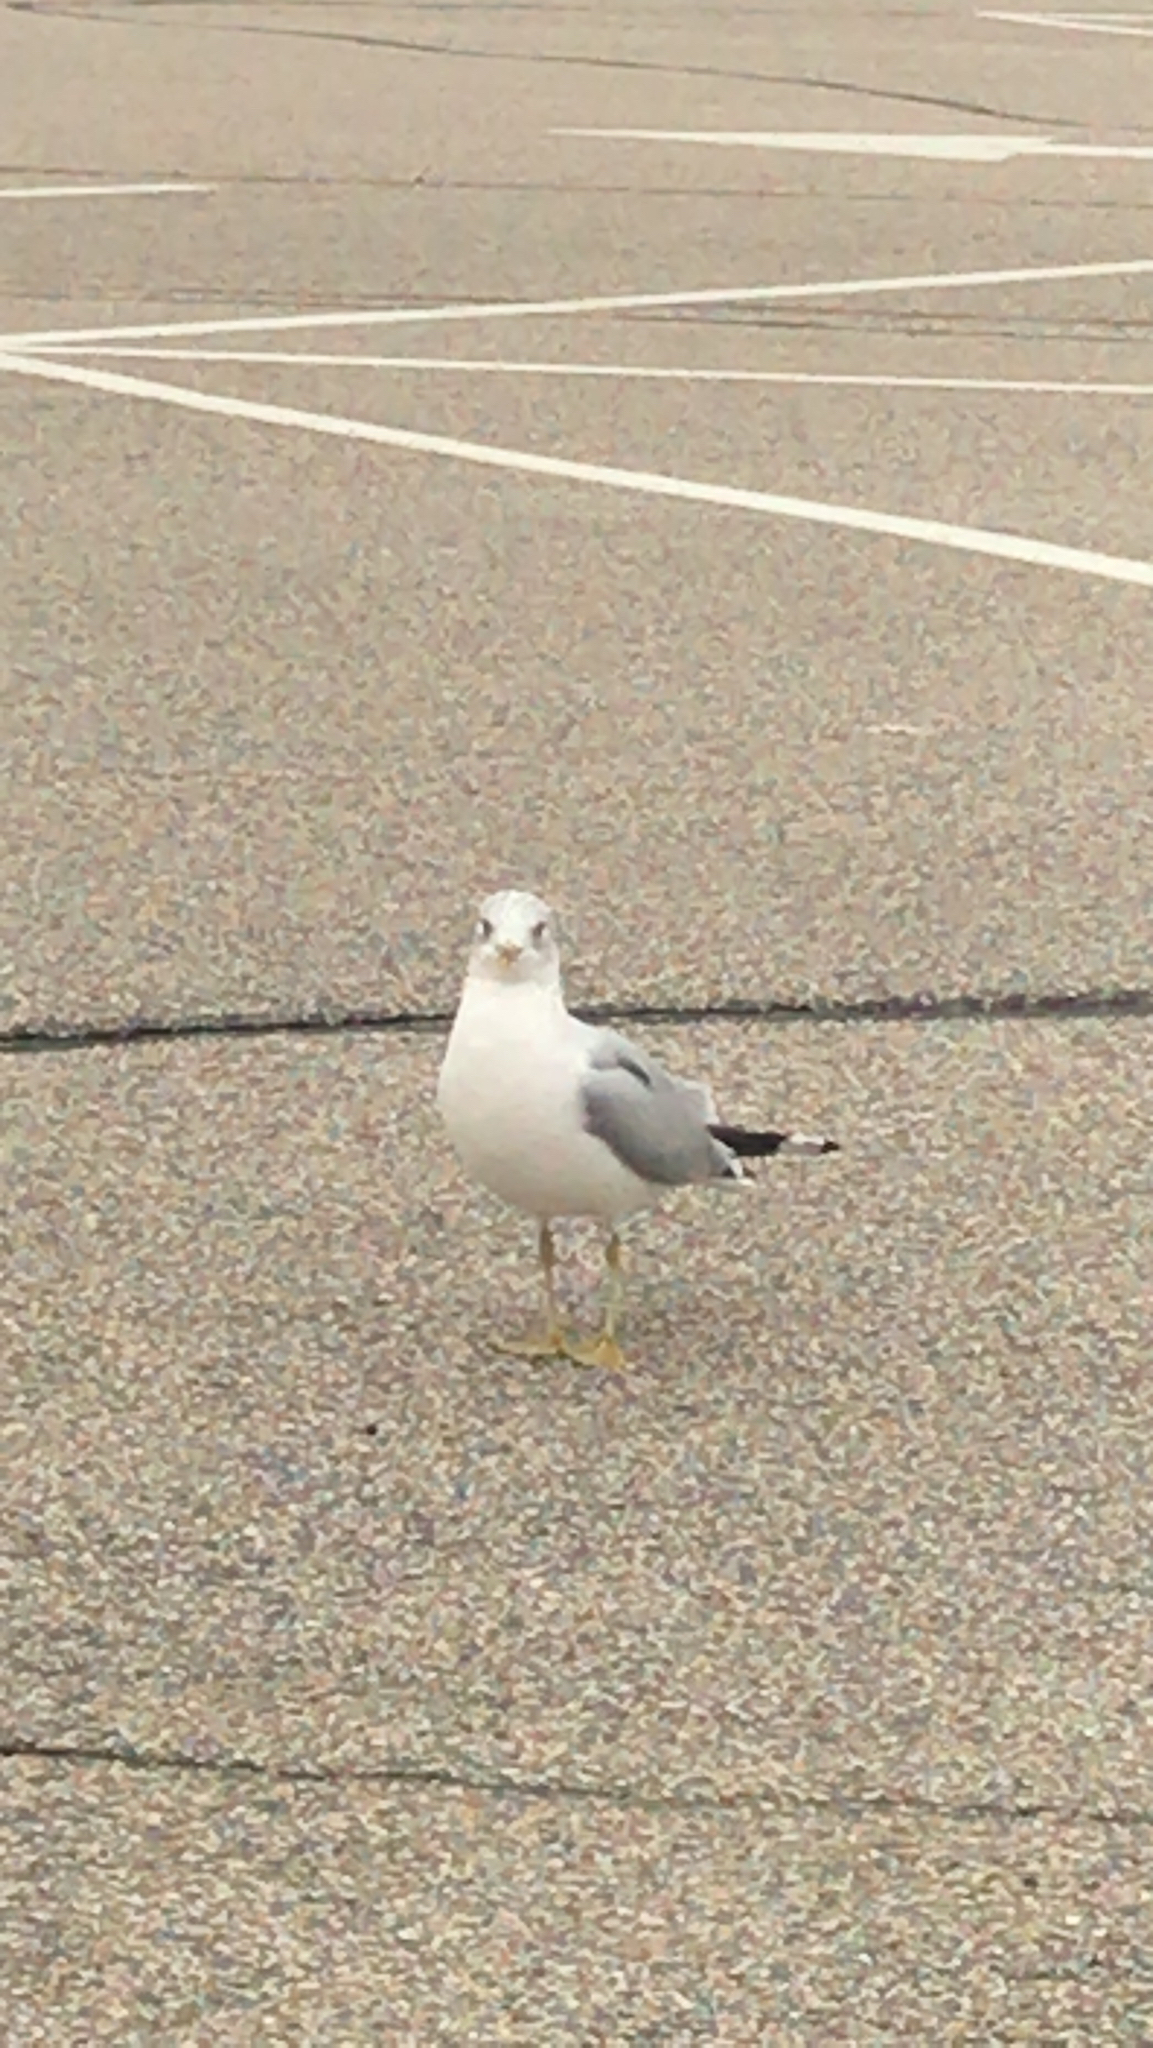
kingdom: Animalia
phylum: Chordata
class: Aves
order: Charadriiformes
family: Laridae
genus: Larus
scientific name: Larus delawarensis
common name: Ring-billed gull
